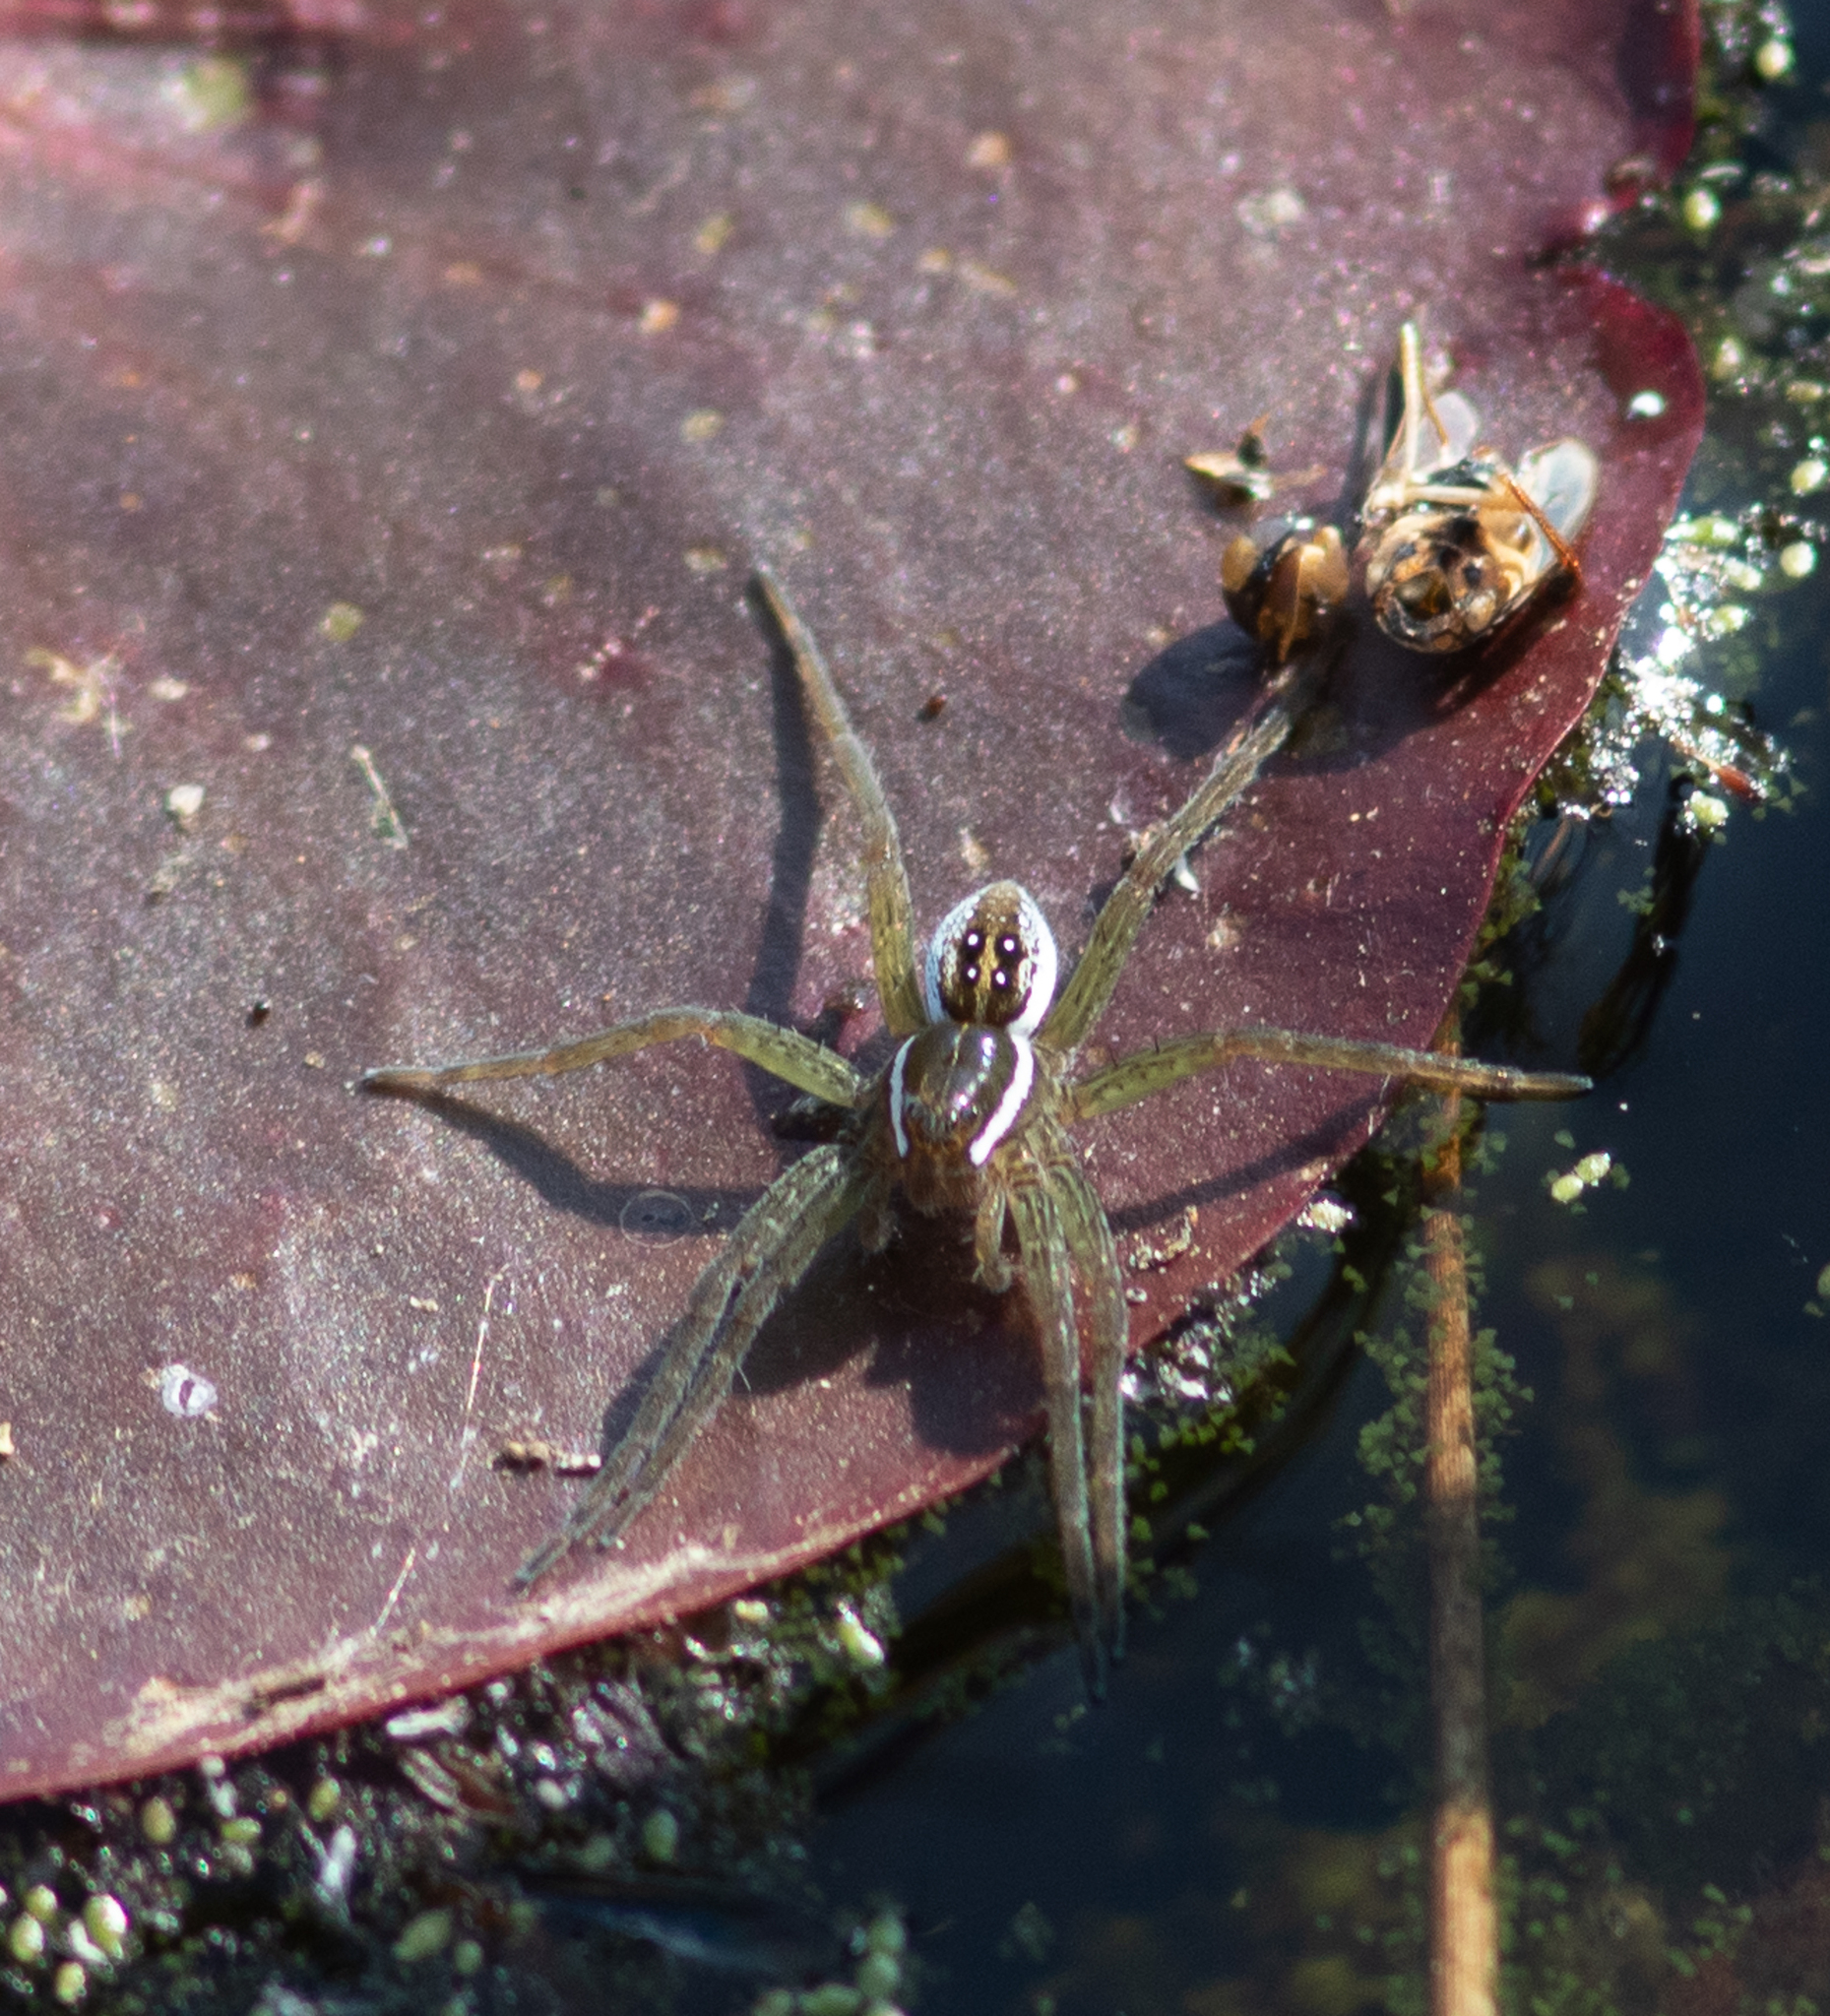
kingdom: Animalia
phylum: Arthropoda
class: Arachnida
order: Araneae
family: Pisauridae
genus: Dolomedes
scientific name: Dolomedes triton
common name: Six-spotted fishing spider
